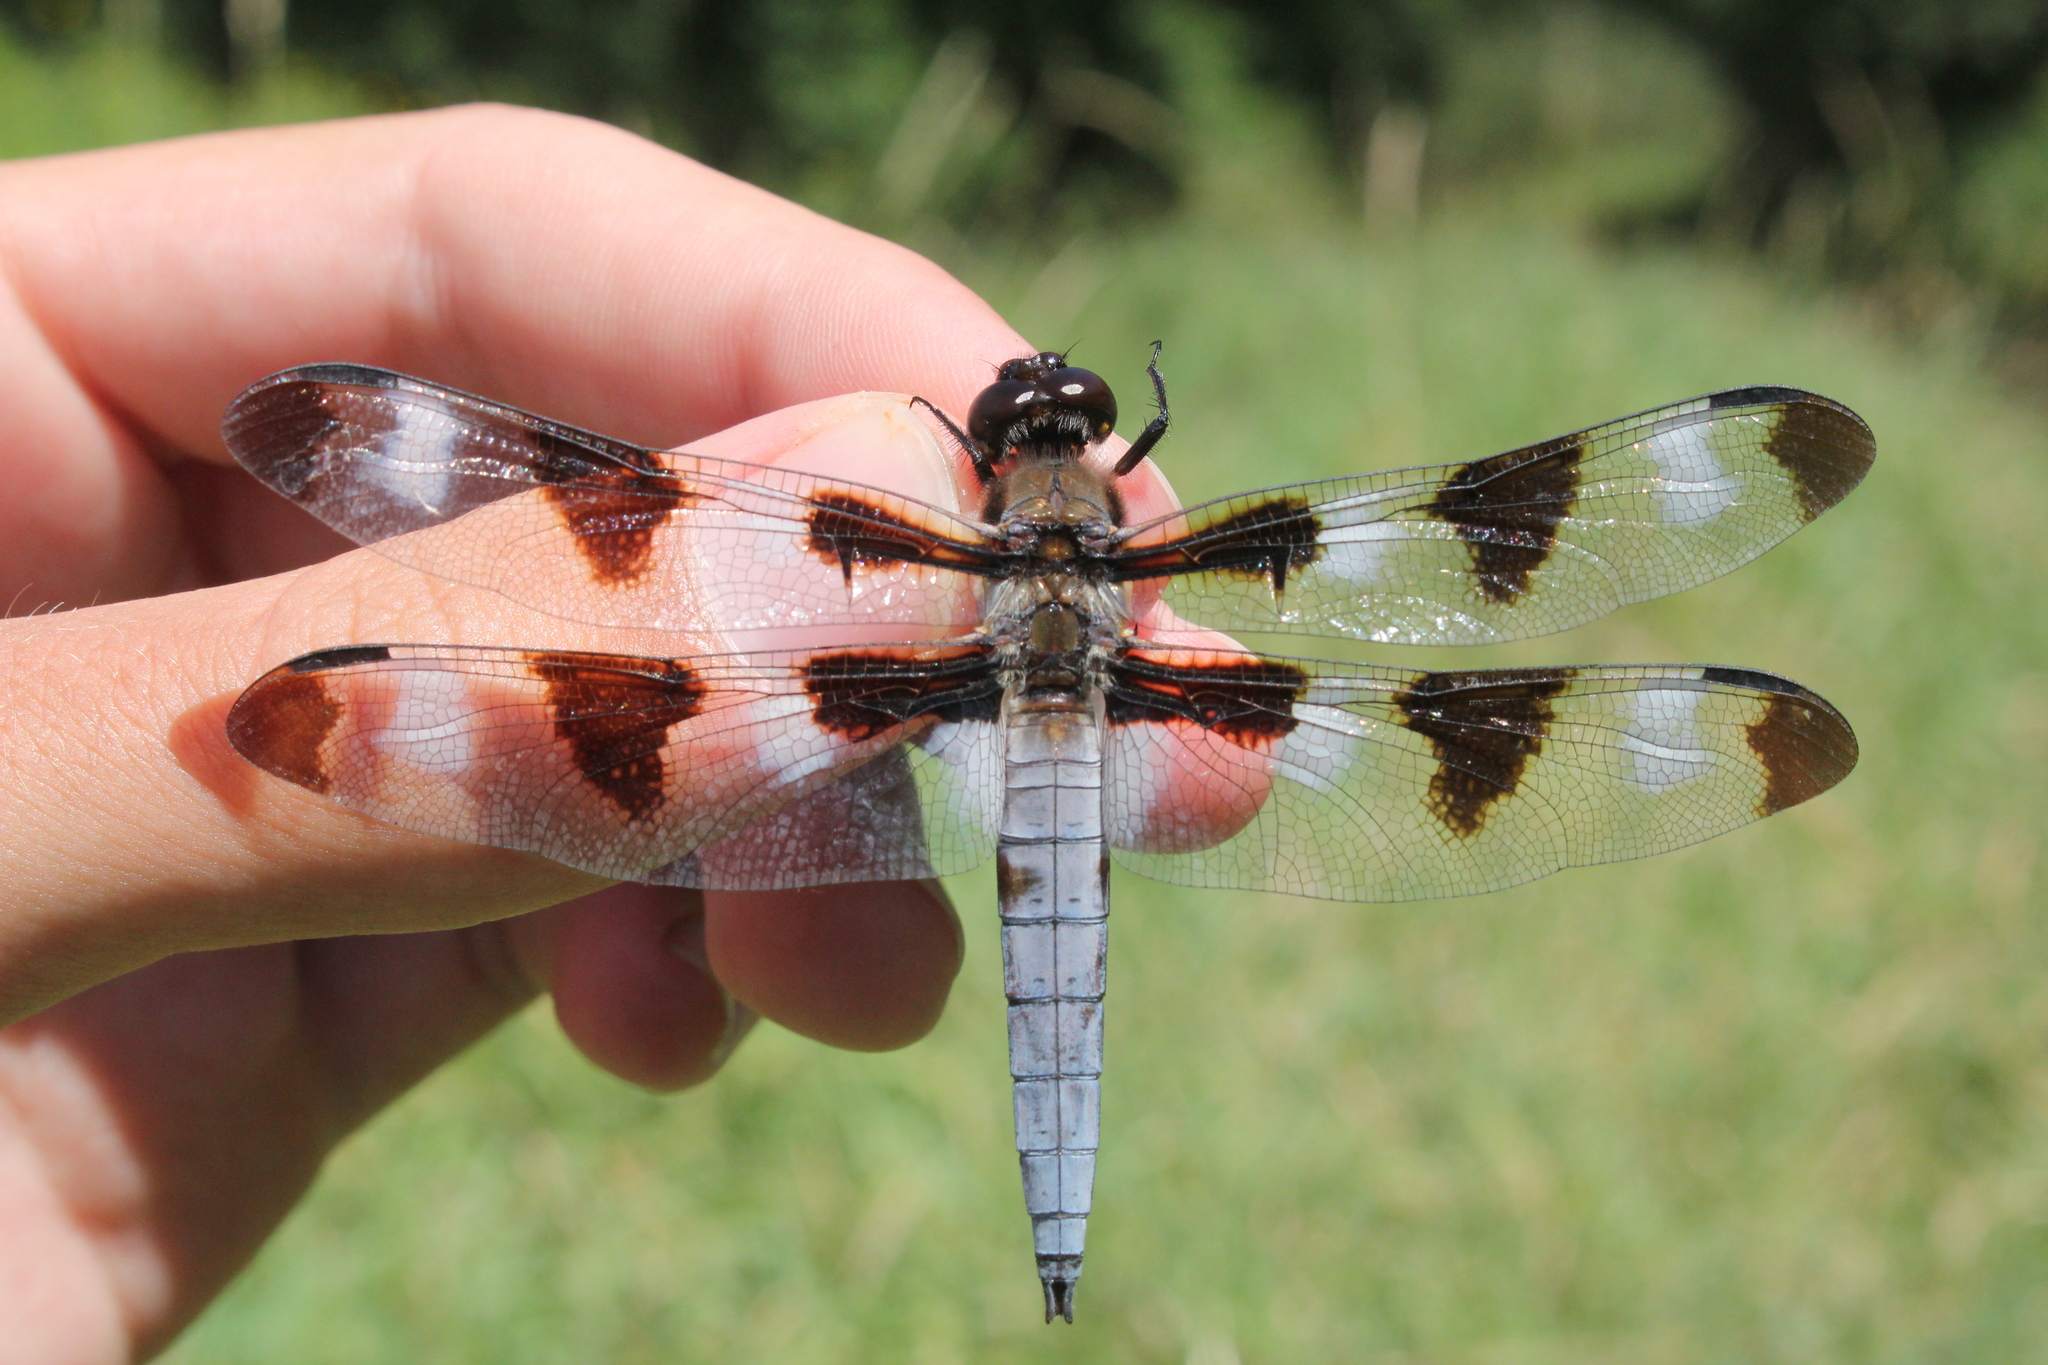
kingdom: Animalia
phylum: Arthropoda
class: Insecta
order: Odonata
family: Libellulidae
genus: Libellula
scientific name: Libellula pulchella
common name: Twelve-spotted skimmer
